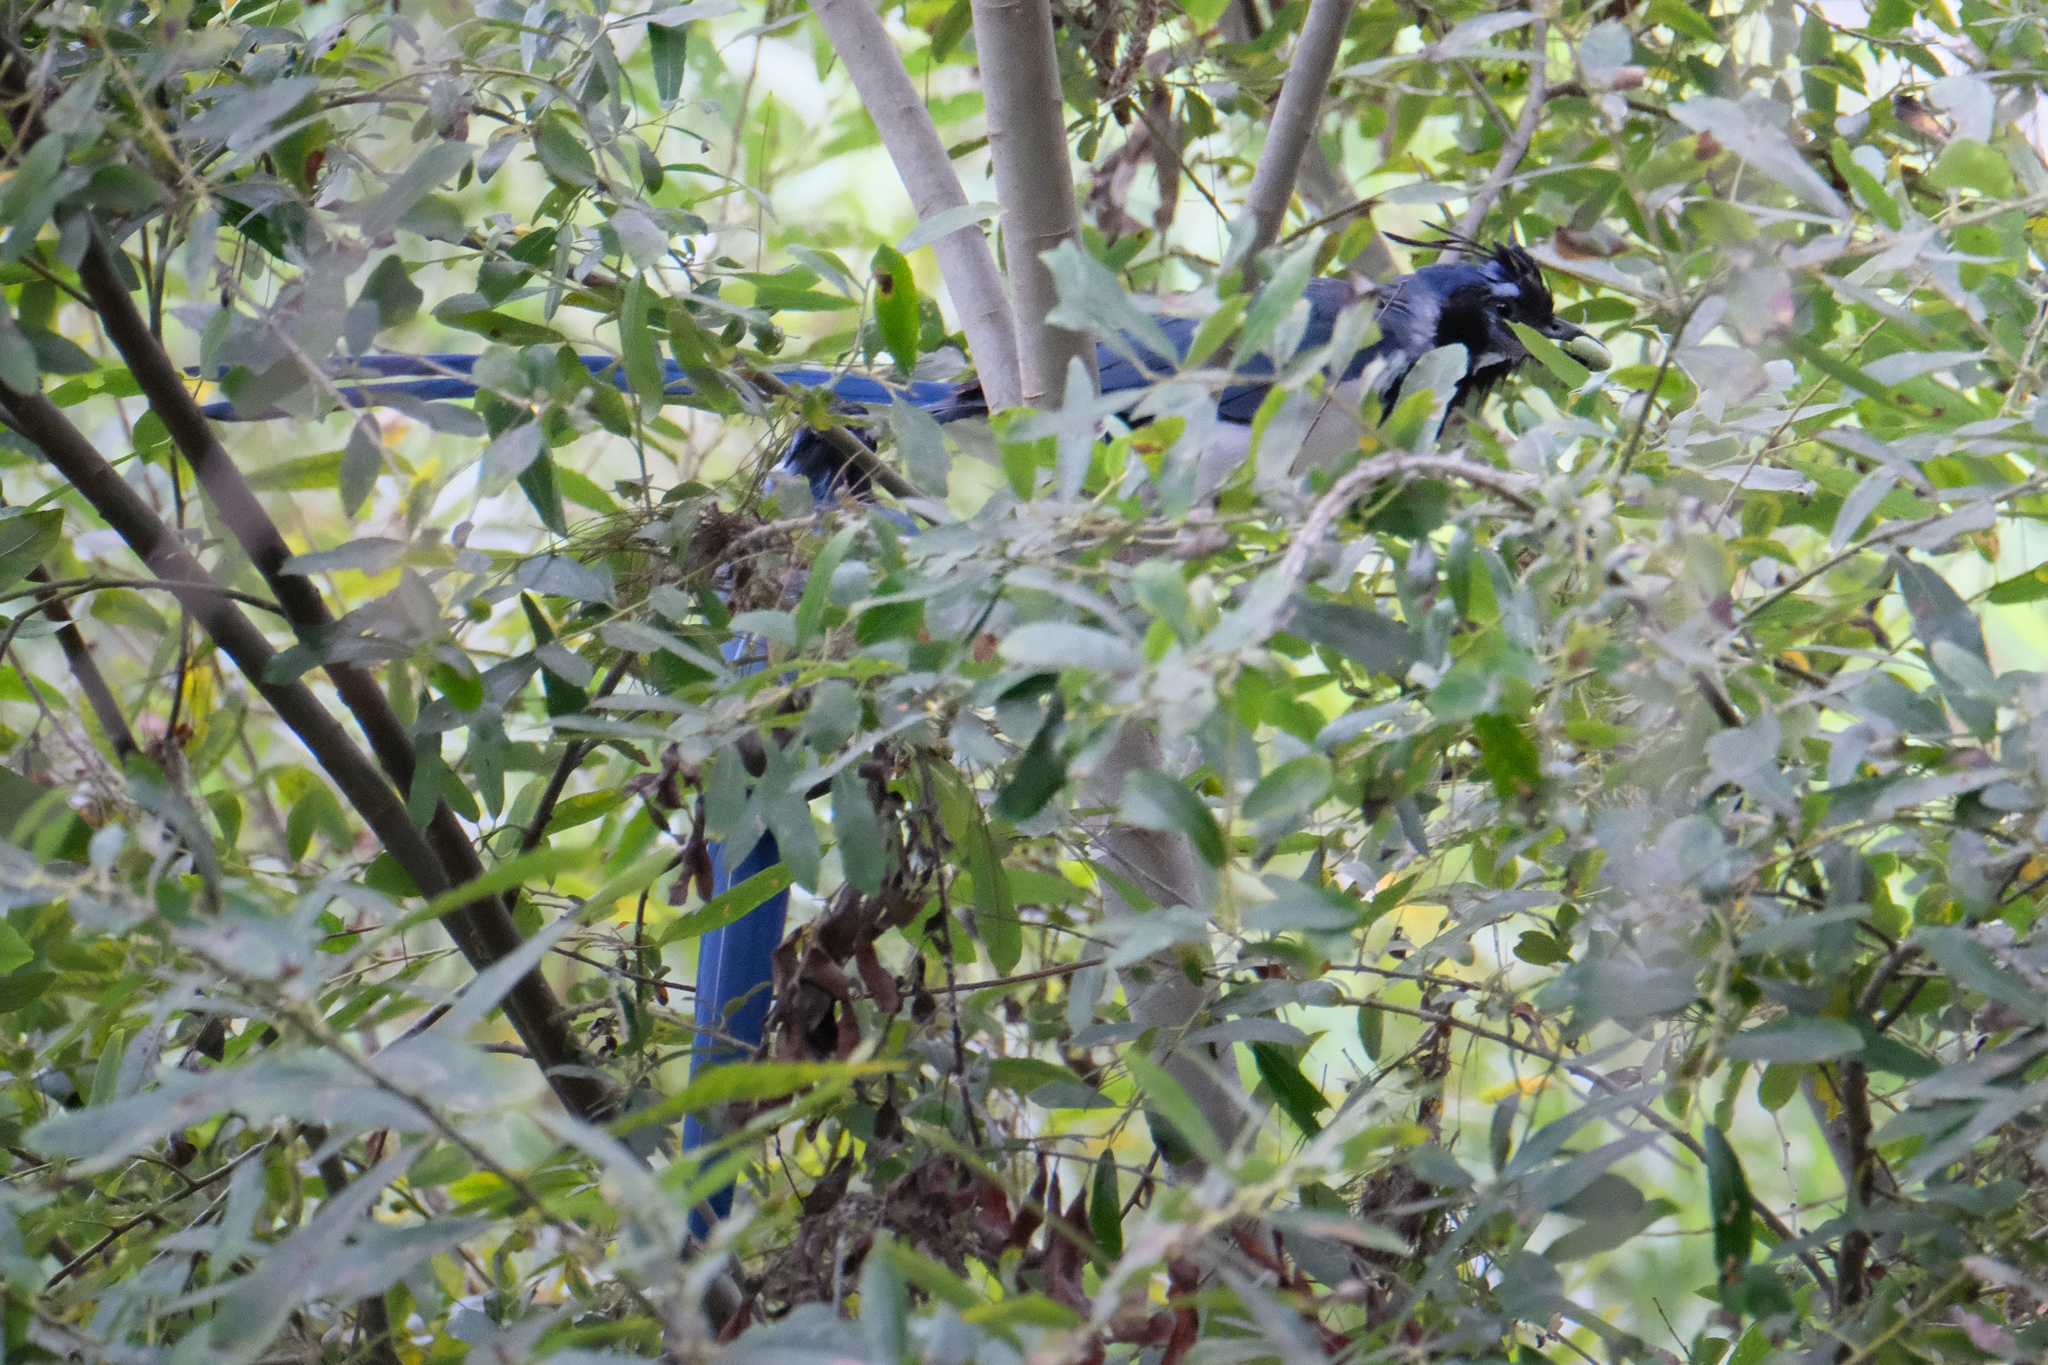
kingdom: Animalia
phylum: Chordata
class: Aves
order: Passeriformes
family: Corvidae
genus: Calocitta
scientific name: Calocitta colliei
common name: Black-throated magpie-jay
